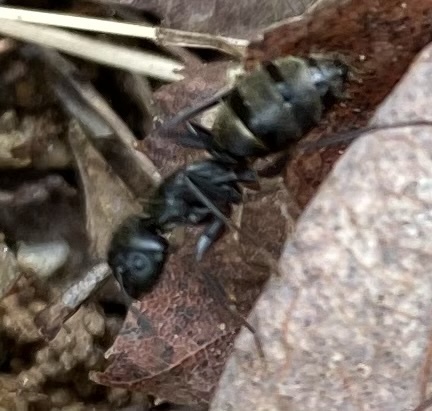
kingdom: Animalia
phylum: Arthropoda
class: Insecta
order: Hymenoptera
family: Formicidae
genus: Camponotus
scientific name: Camponotus pennsylvanicus
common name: Black carpenter ant
